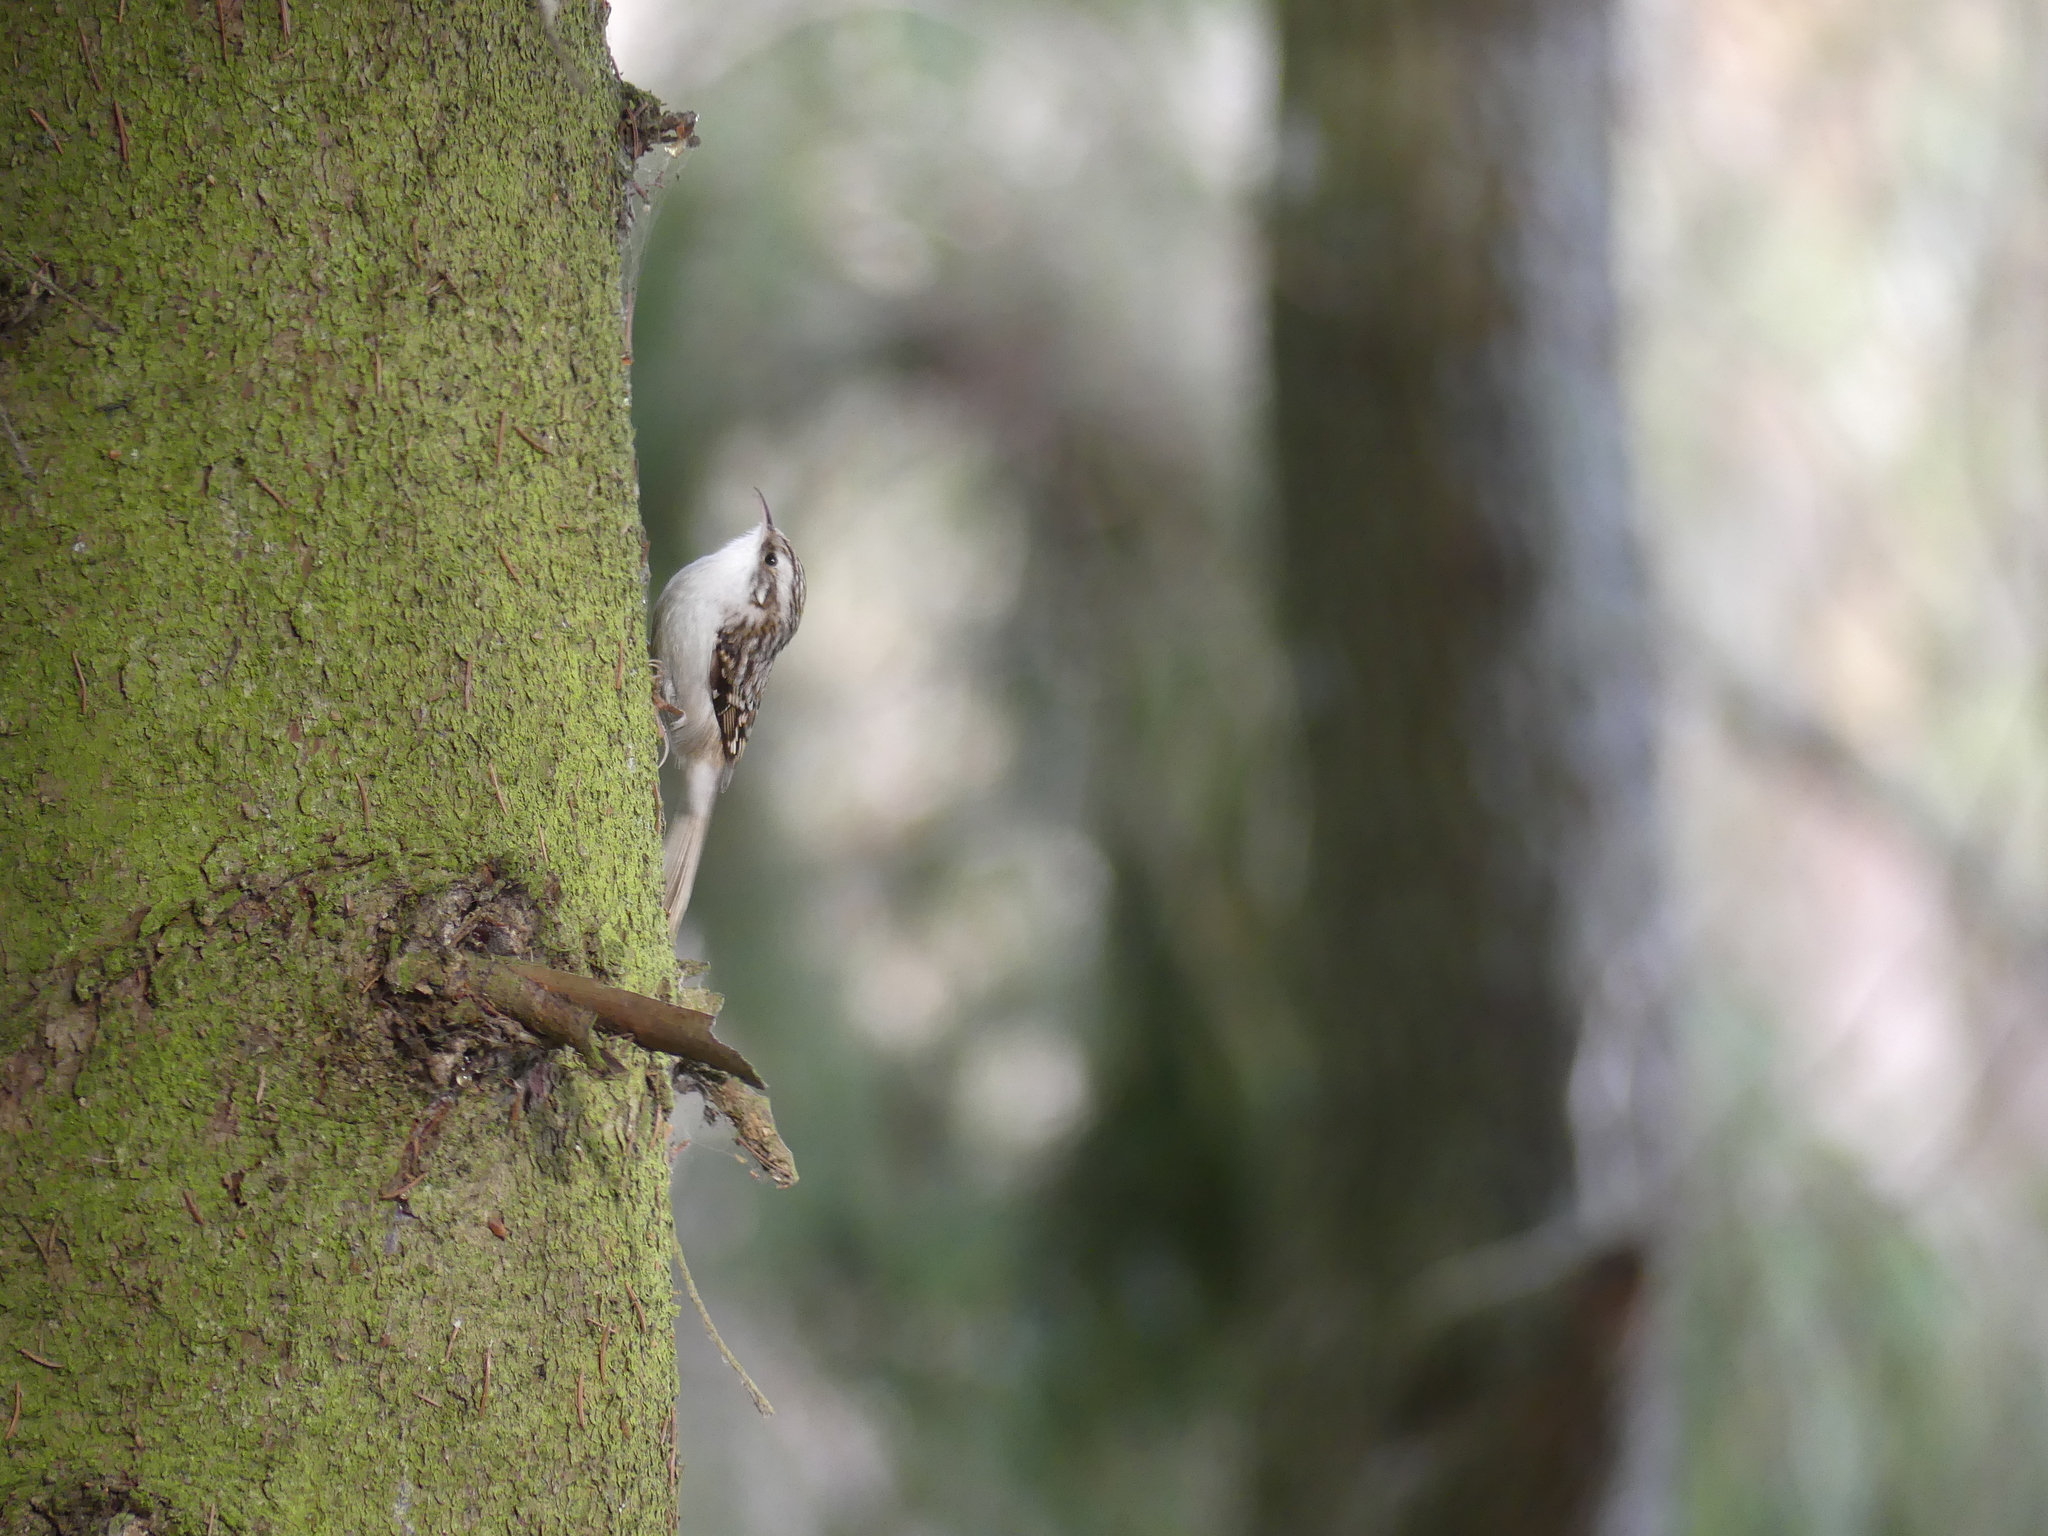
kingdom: Animalia
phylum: Chordata
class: Aves
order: Passeriformes
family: Certhiidae
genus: Certhia
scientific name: Certhia familiaris
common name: Eurasian treecreeper
